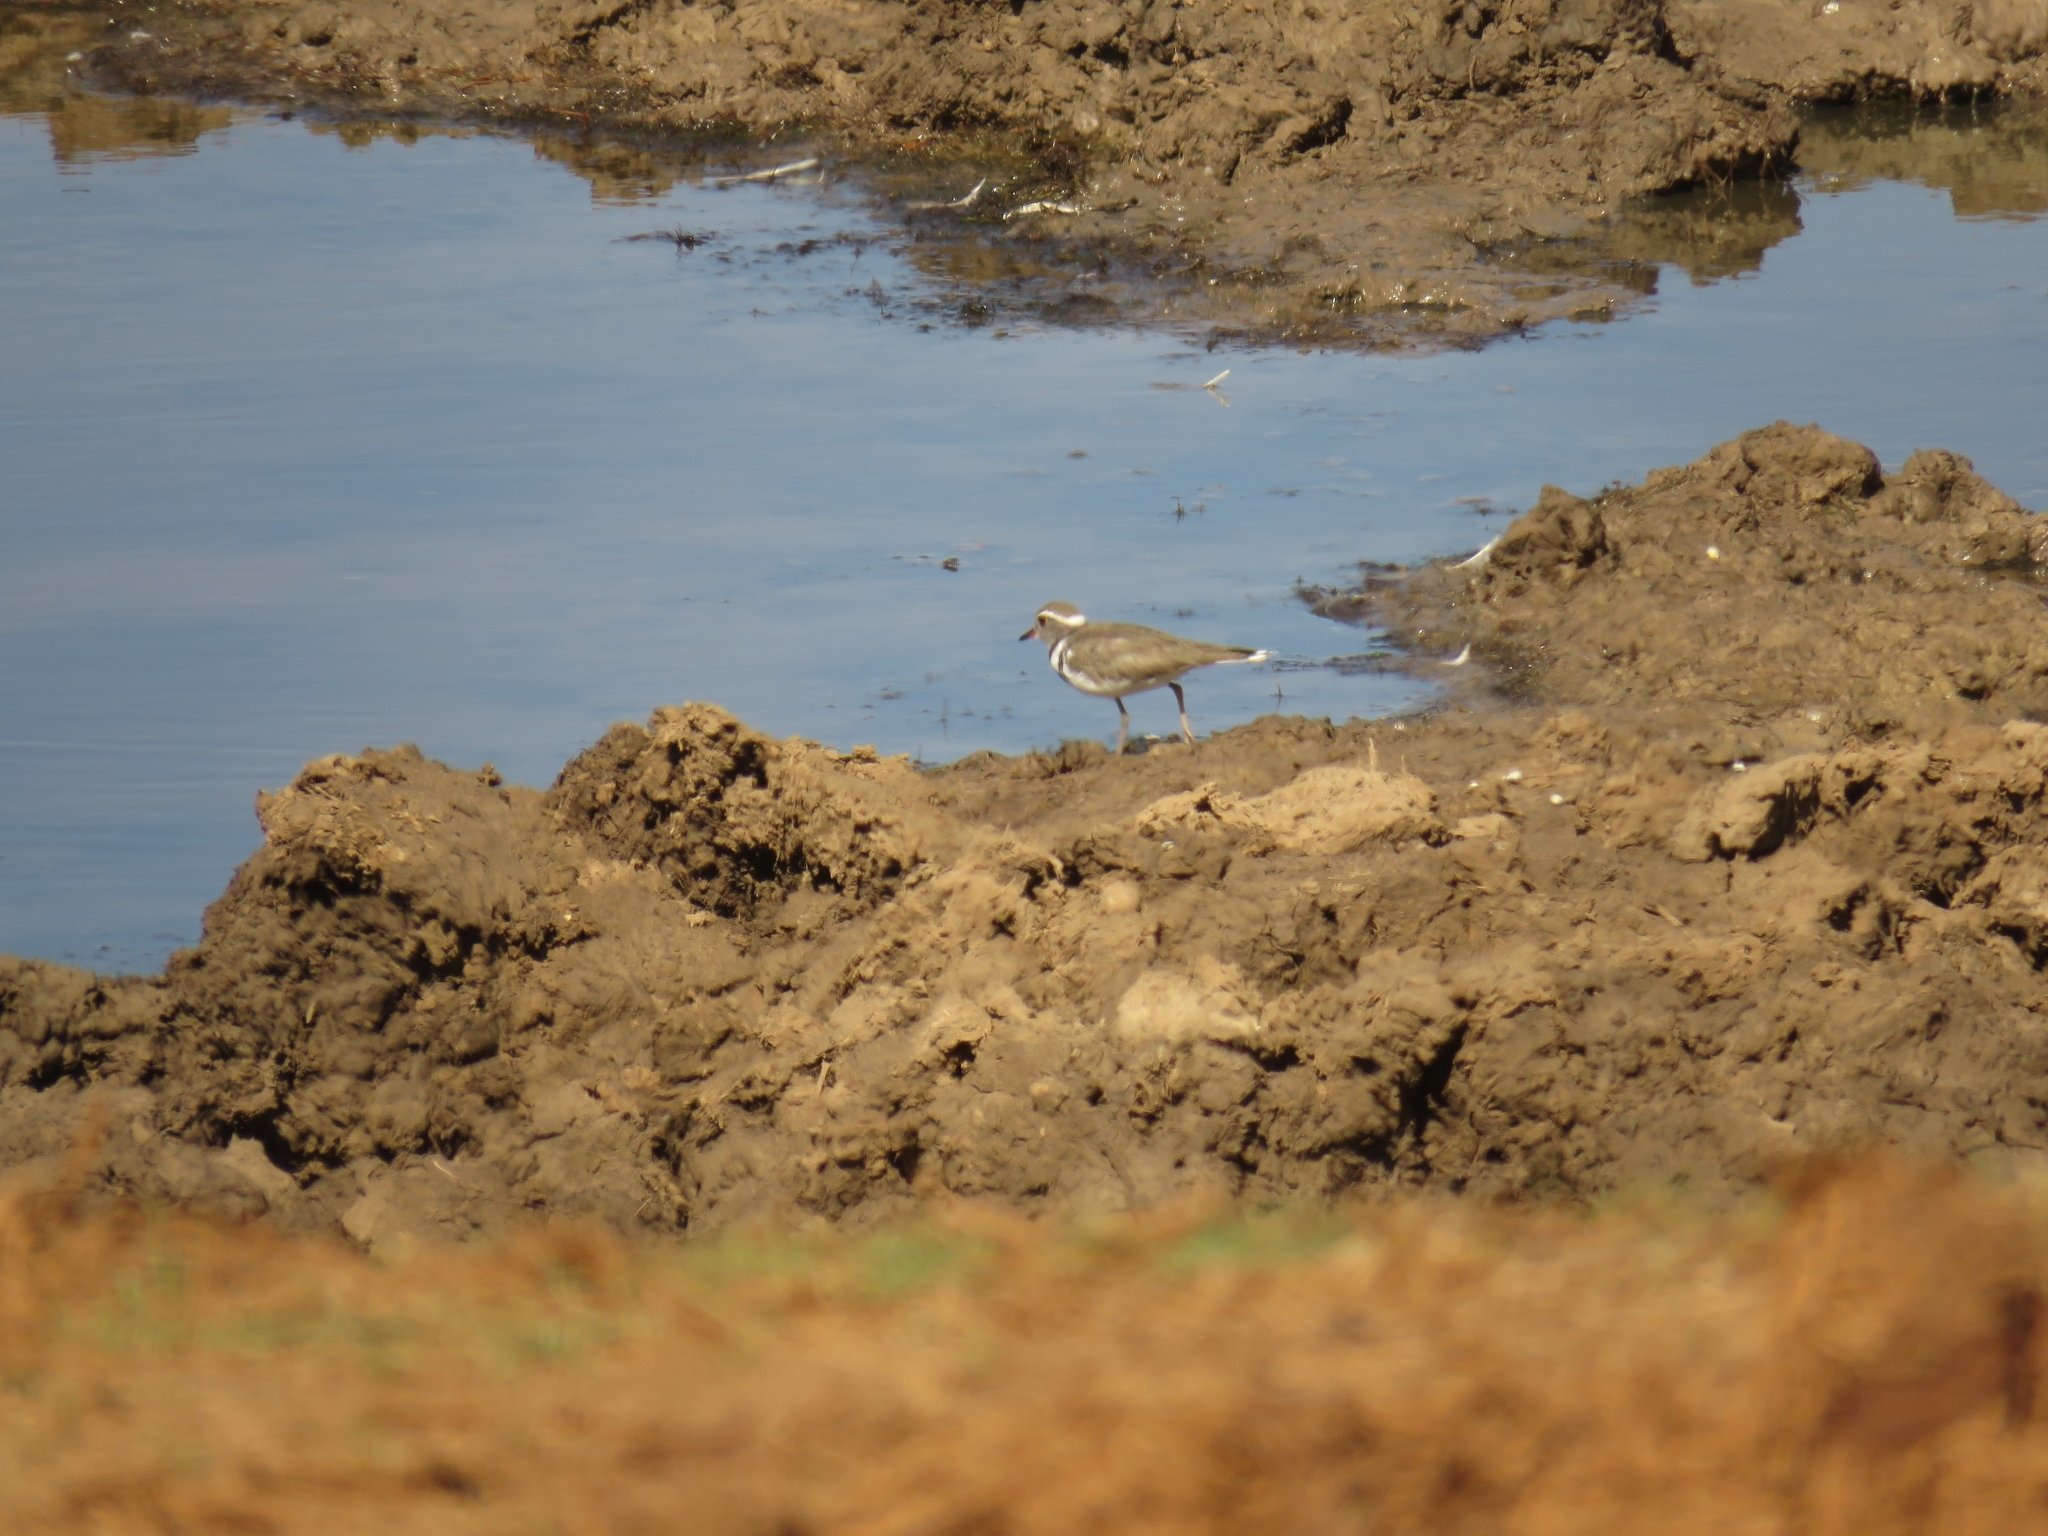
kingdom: Animalia
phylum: Chordata
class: Aves
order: Charadriiformes
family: Charadriidae
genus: Charadrius
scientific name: Charadrius tricollaris
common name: Three-banded plover
